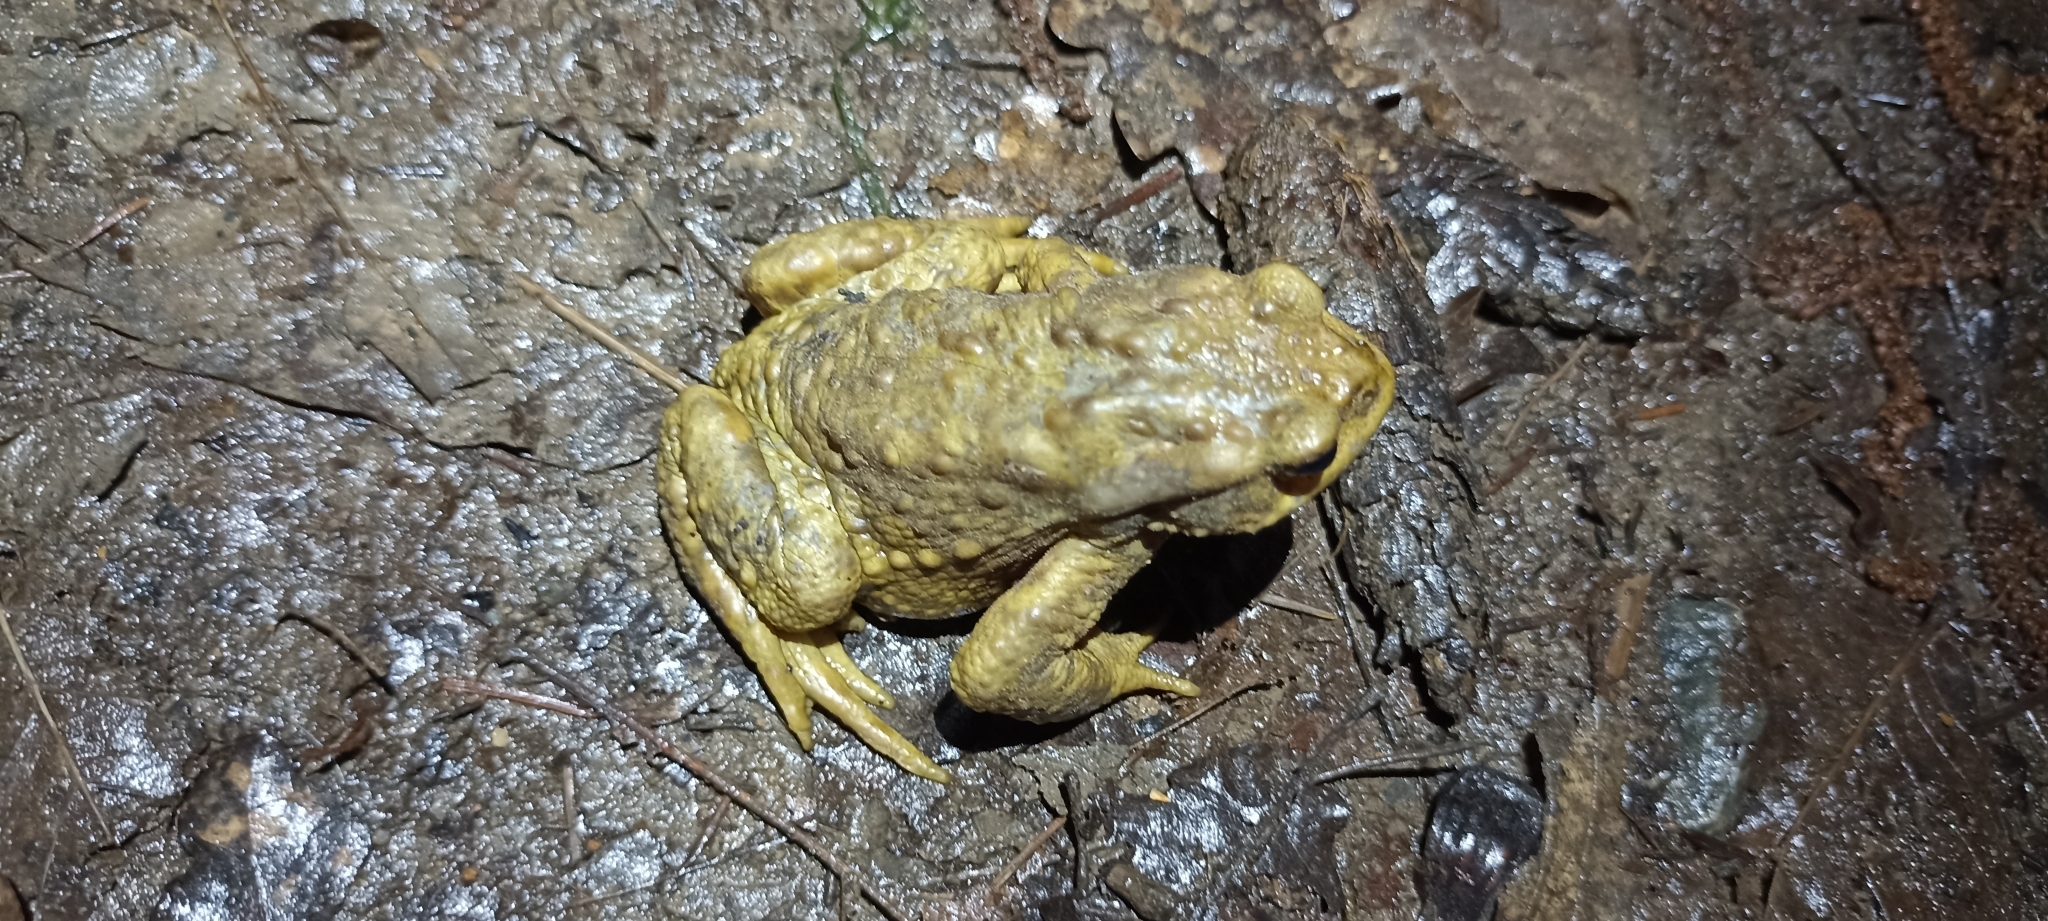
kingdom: Animalia
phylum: Chordata
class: Amphibia
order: Anura
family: Bufonidae
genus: Bufo
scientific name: Bufo spinosus
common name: Western common toad
